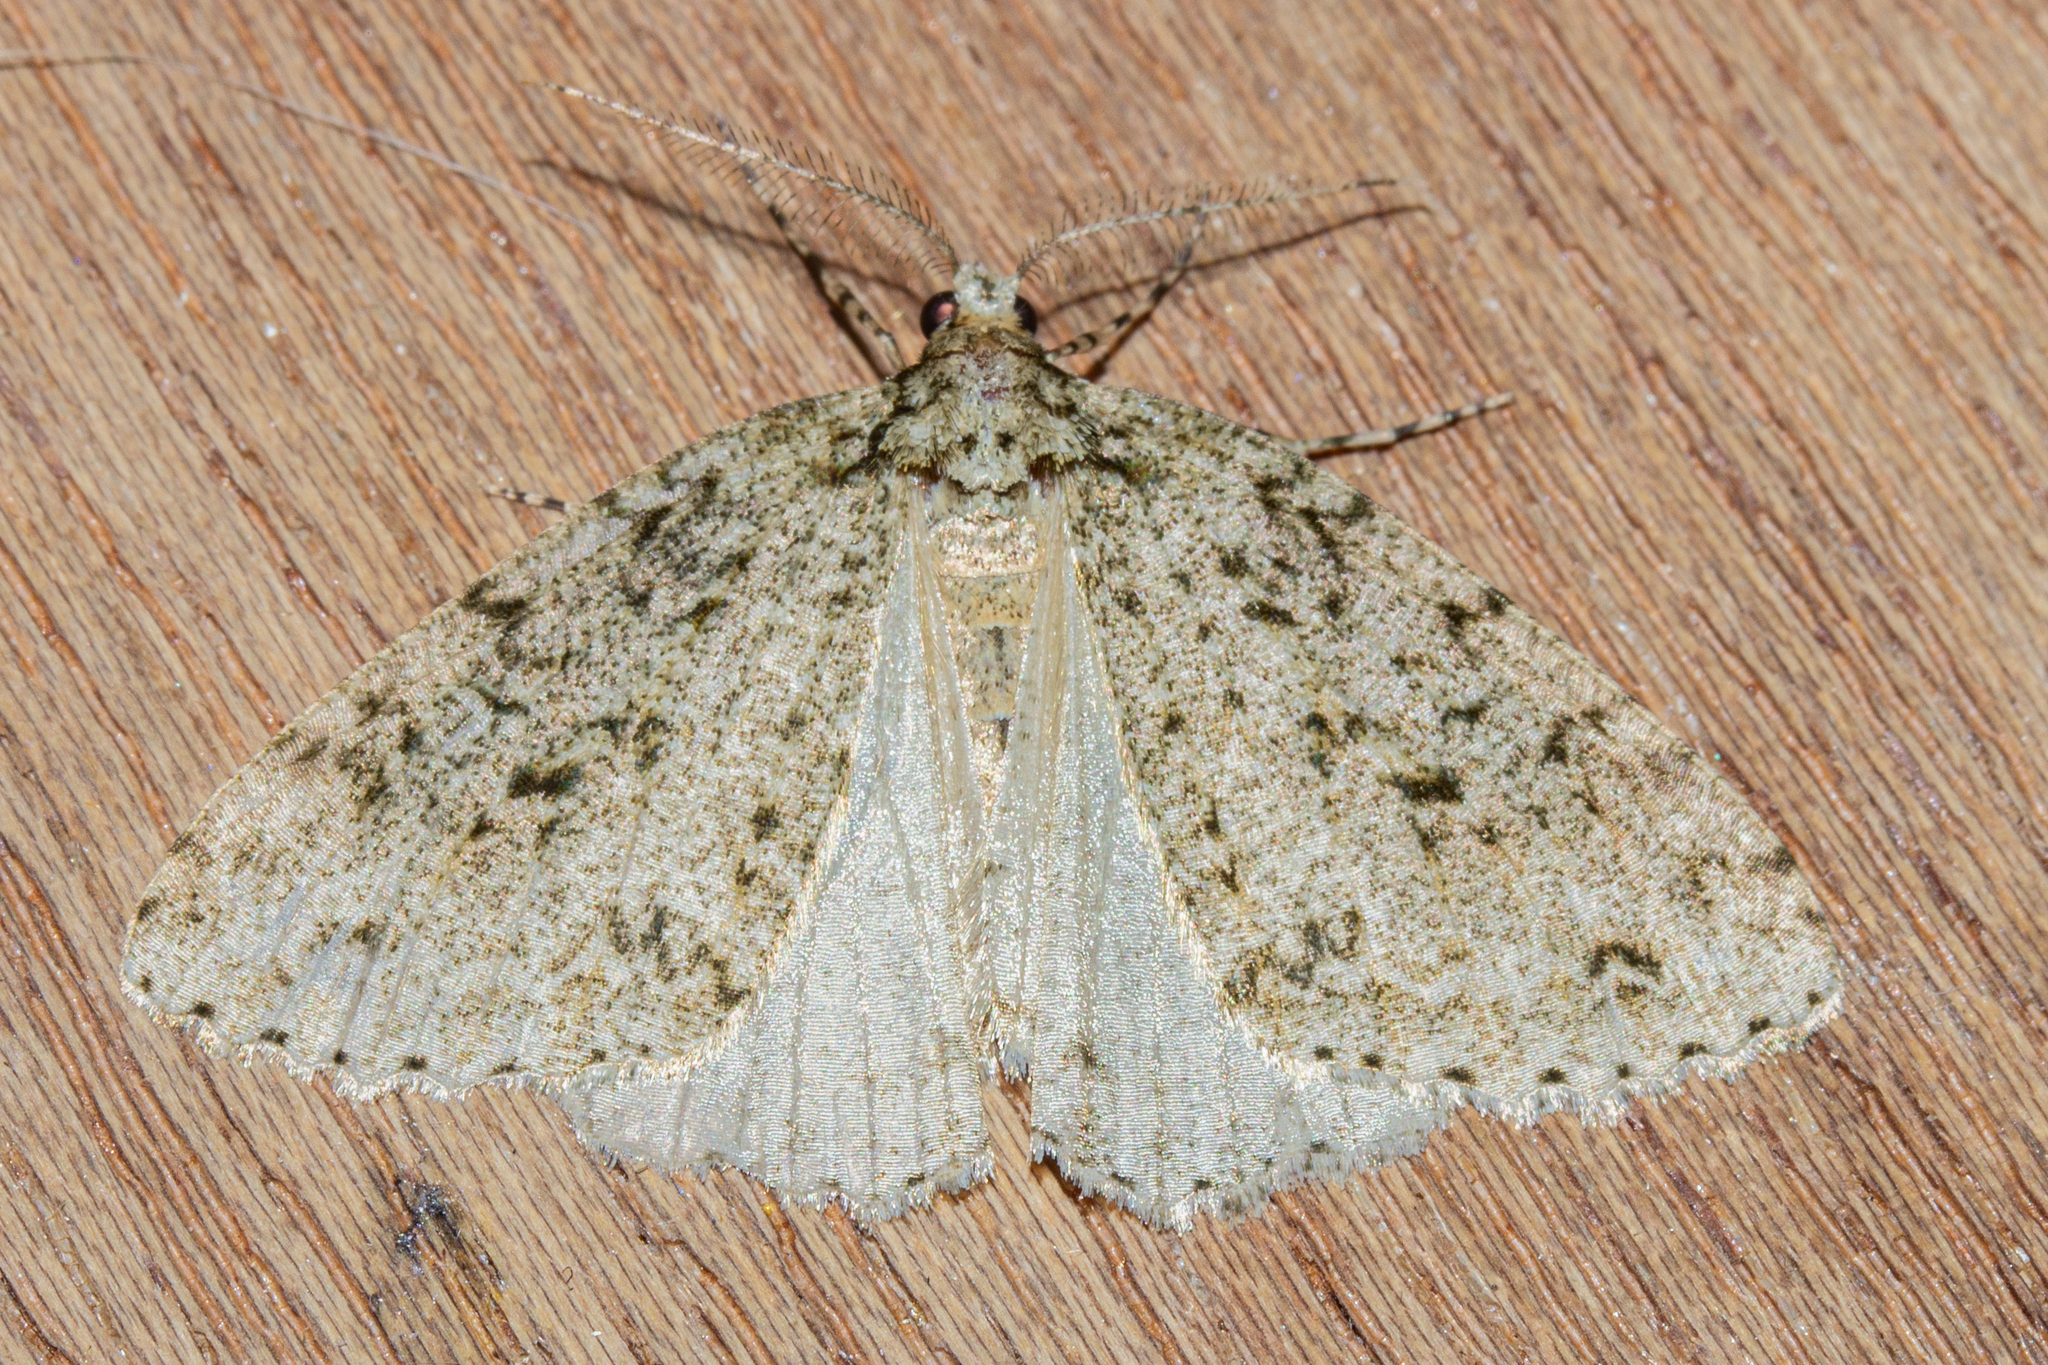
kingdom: Animalia
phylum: Arthropoda
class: Insecta
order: Lepidoptera
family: Geometridae
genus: Pseudocoremia
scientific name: Pseudocoremia rudisata
